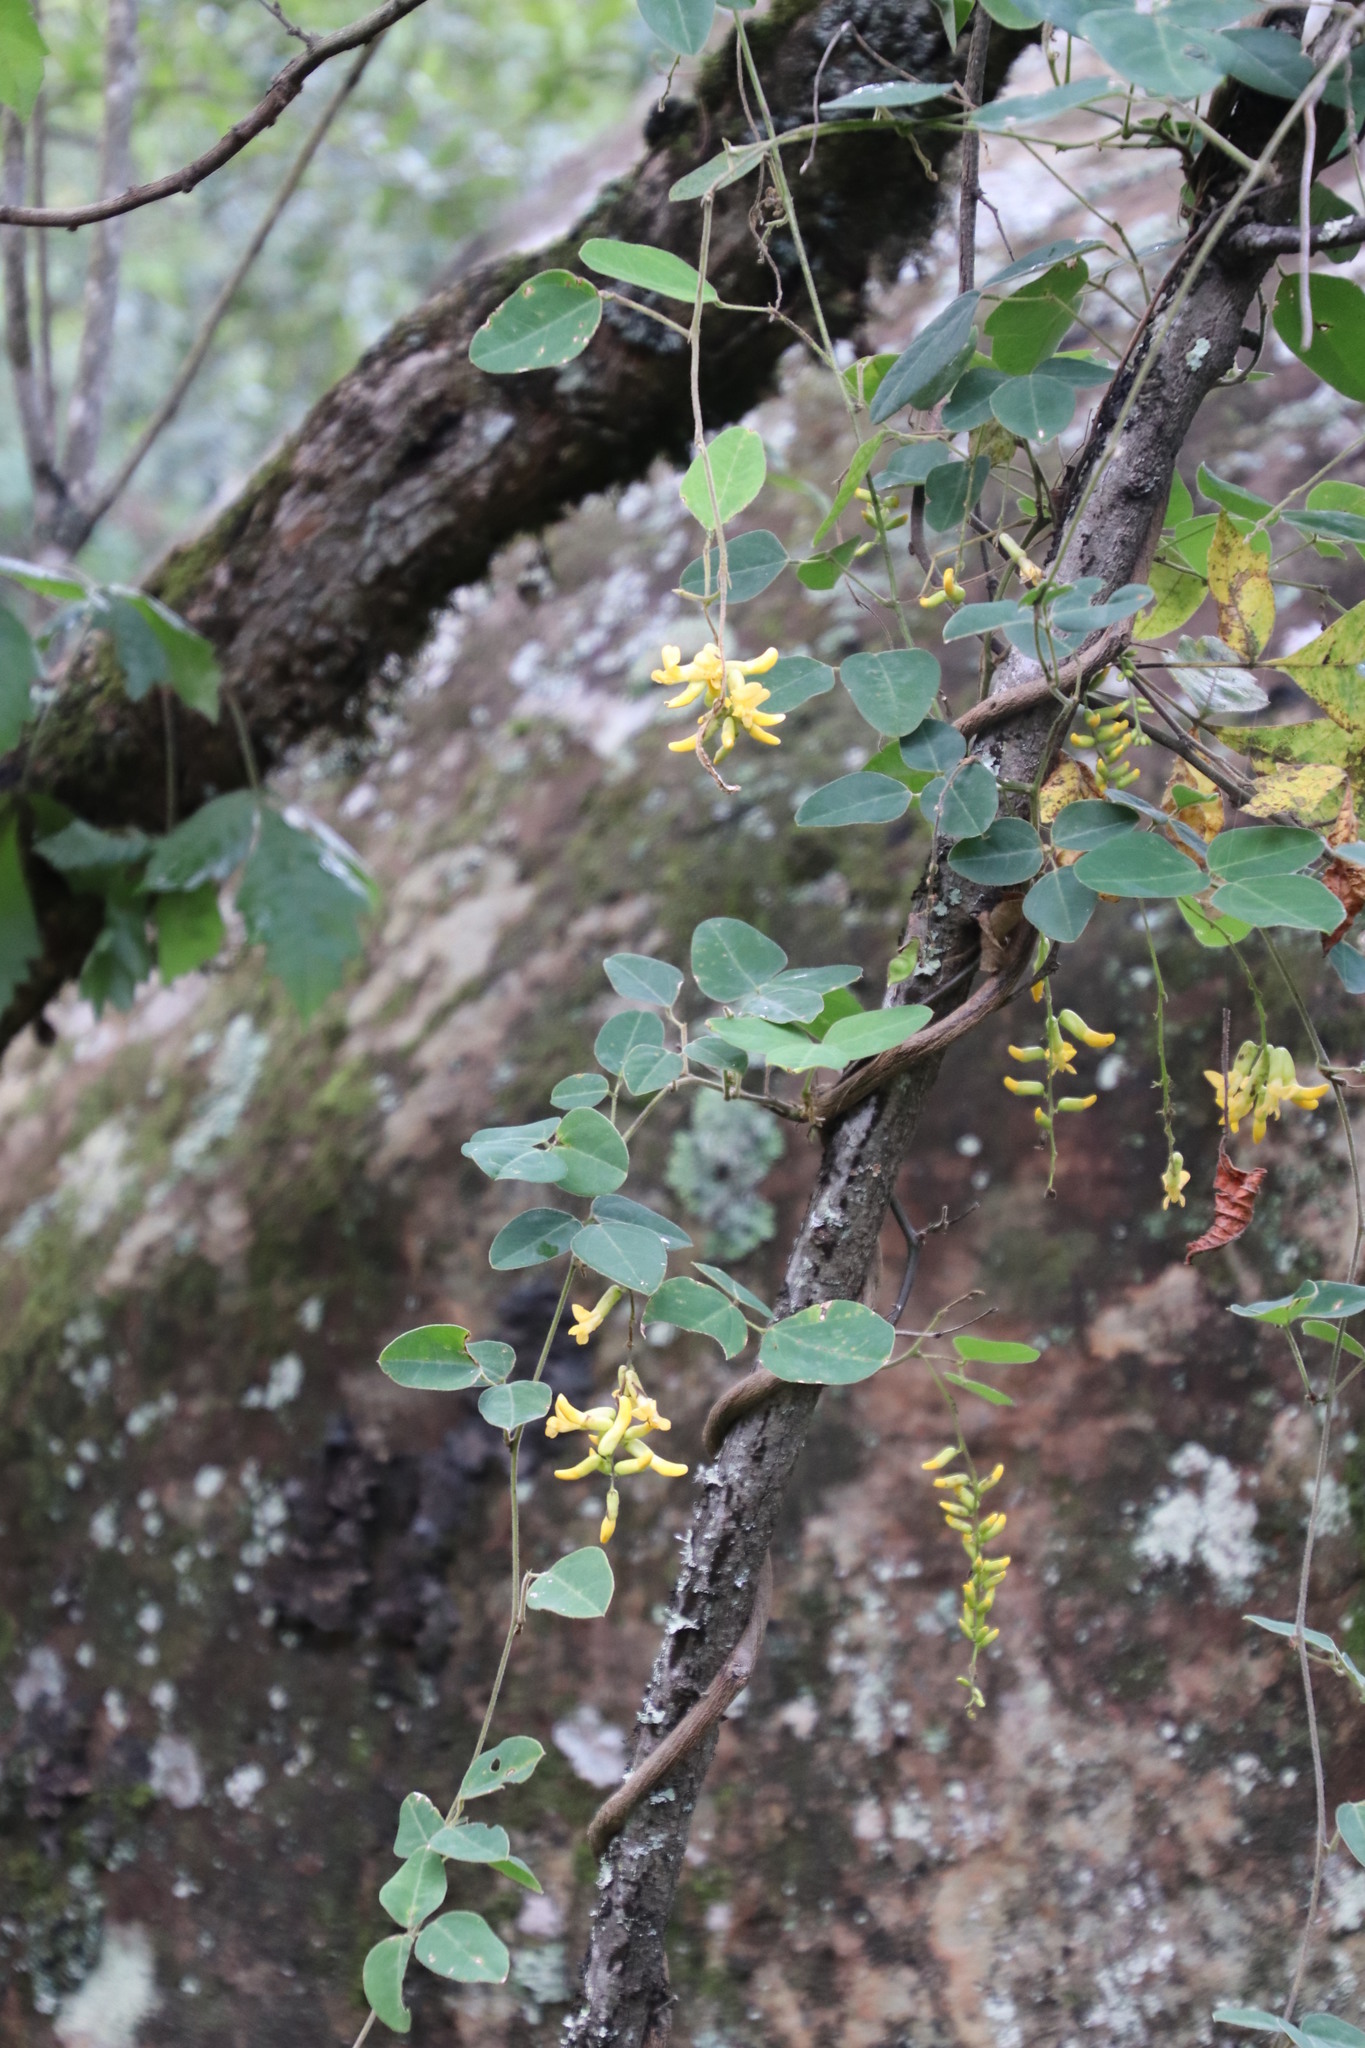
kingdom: Plantae
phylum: Tracheophyta
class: Magnoliopsida
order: Fabales
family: Fabaceae
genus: Dumasia
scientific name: Dumasia villosa
